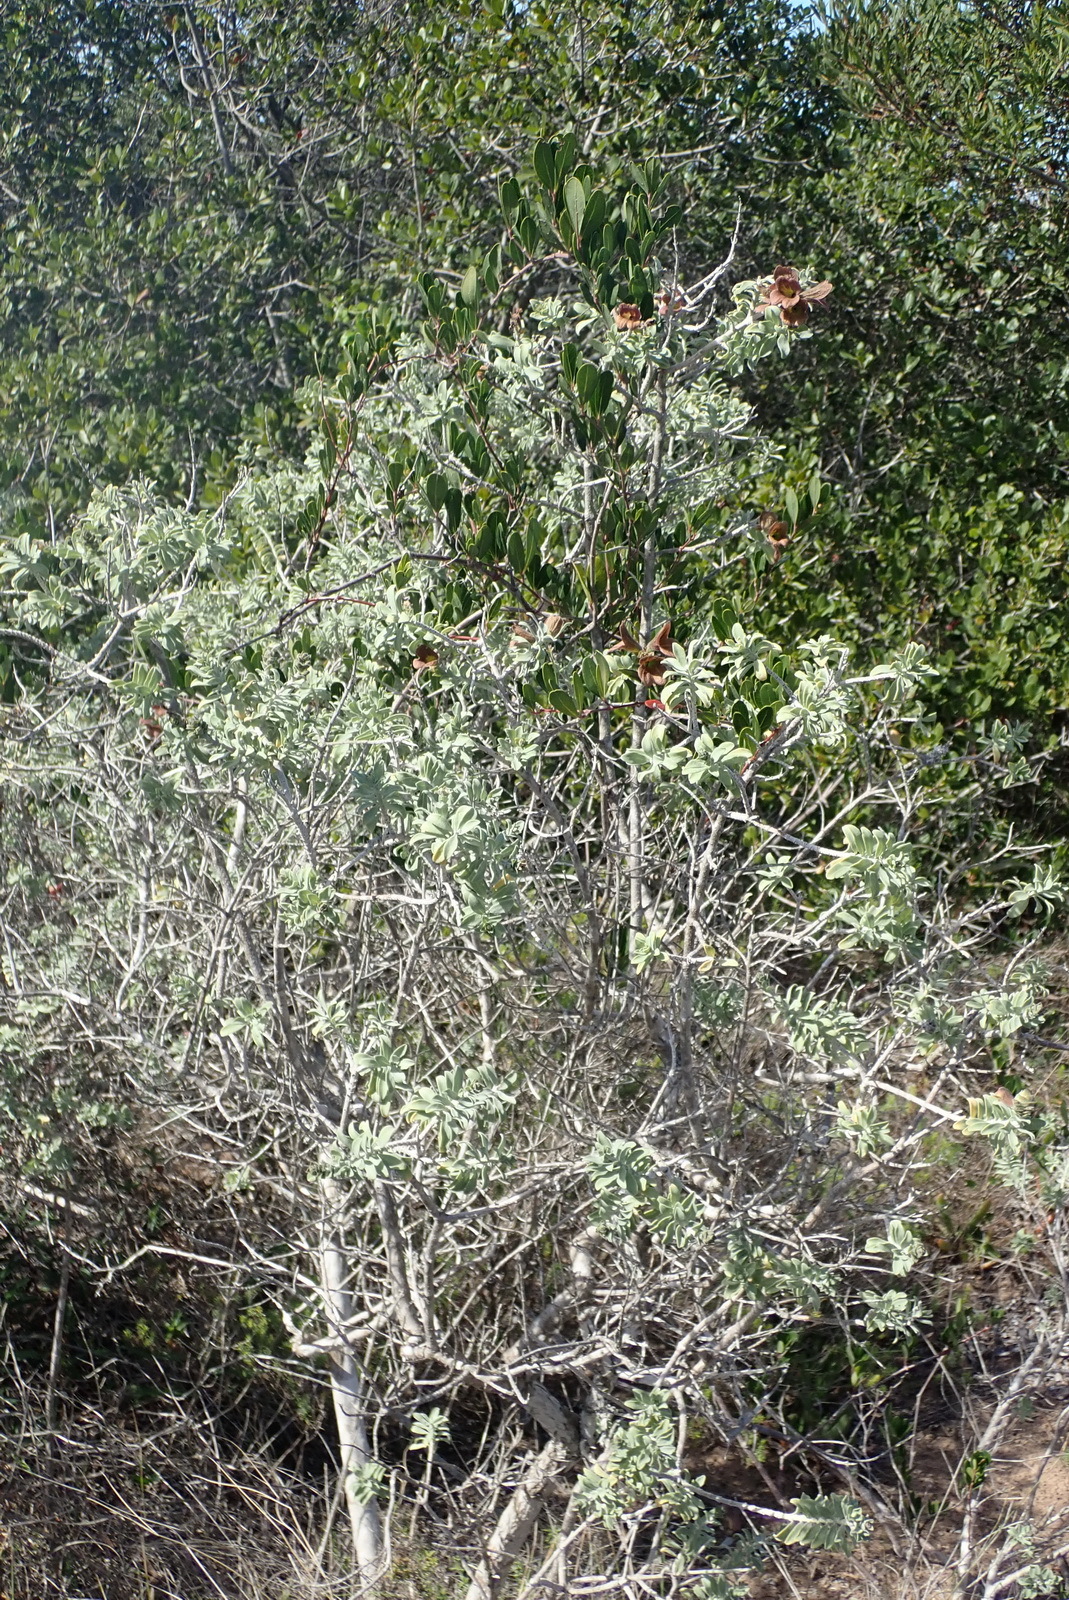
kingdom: Plantae
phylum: Tracheophyta
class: Magnoliopsida
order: Lamiales
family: Lamiaceae
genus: Salvia
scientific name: Salvia aurea
